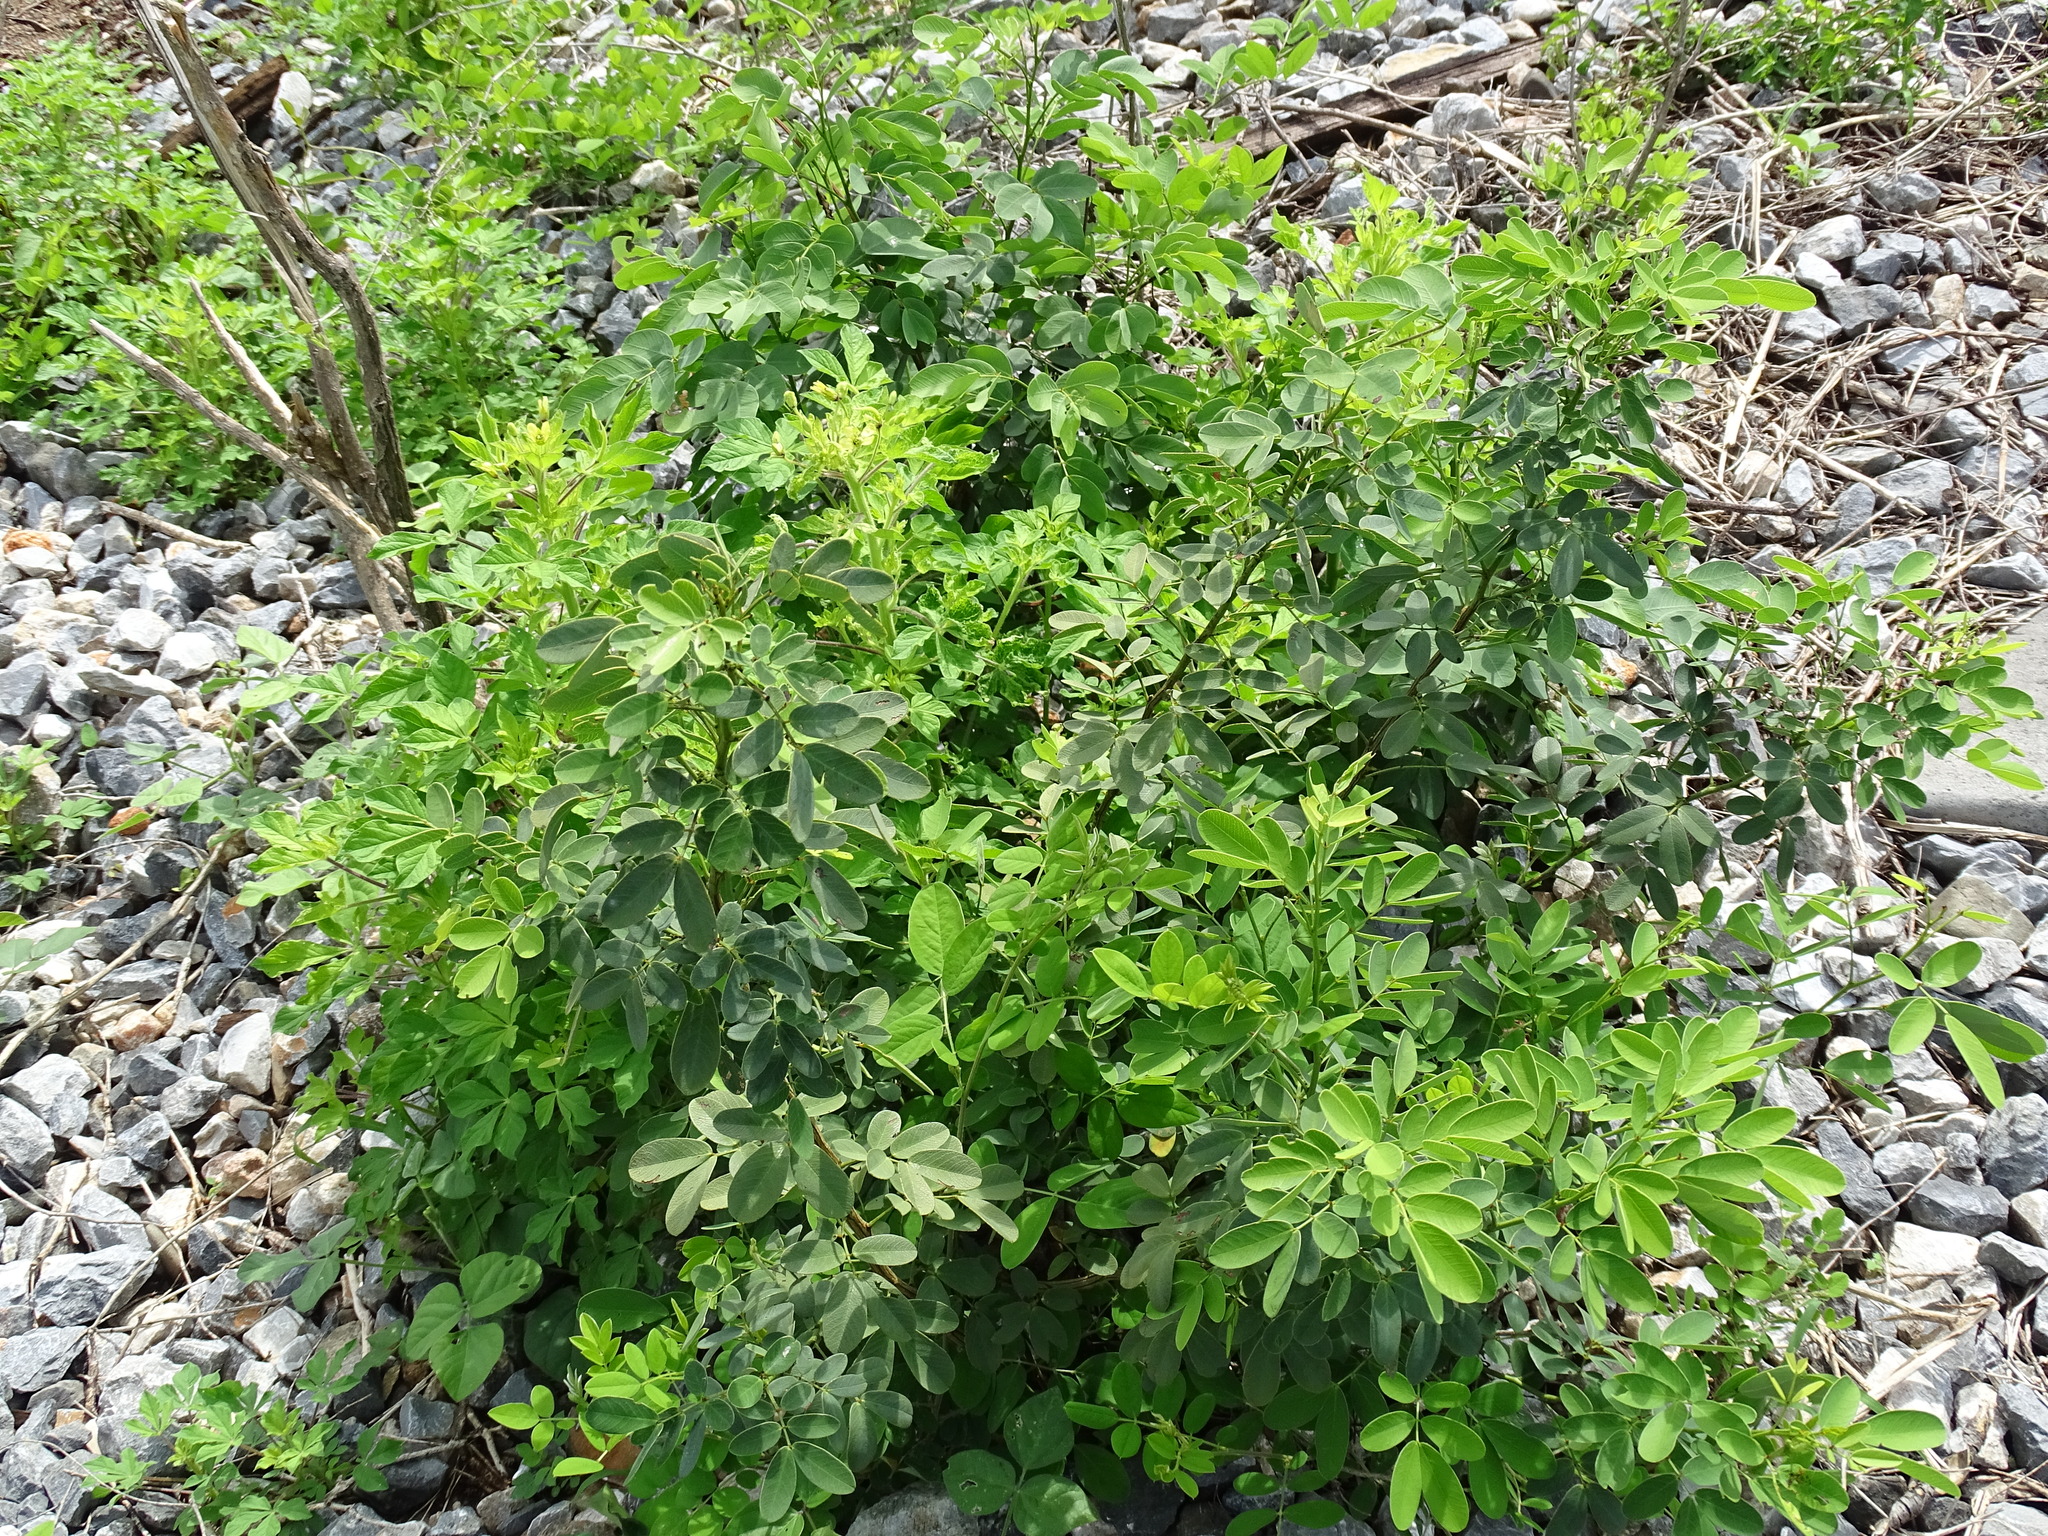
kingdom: Plantae
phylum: Tracheophyta
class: Magnoliopsida
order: Fabales
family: Fabaceae
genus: Senna
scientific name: Senna pallida
